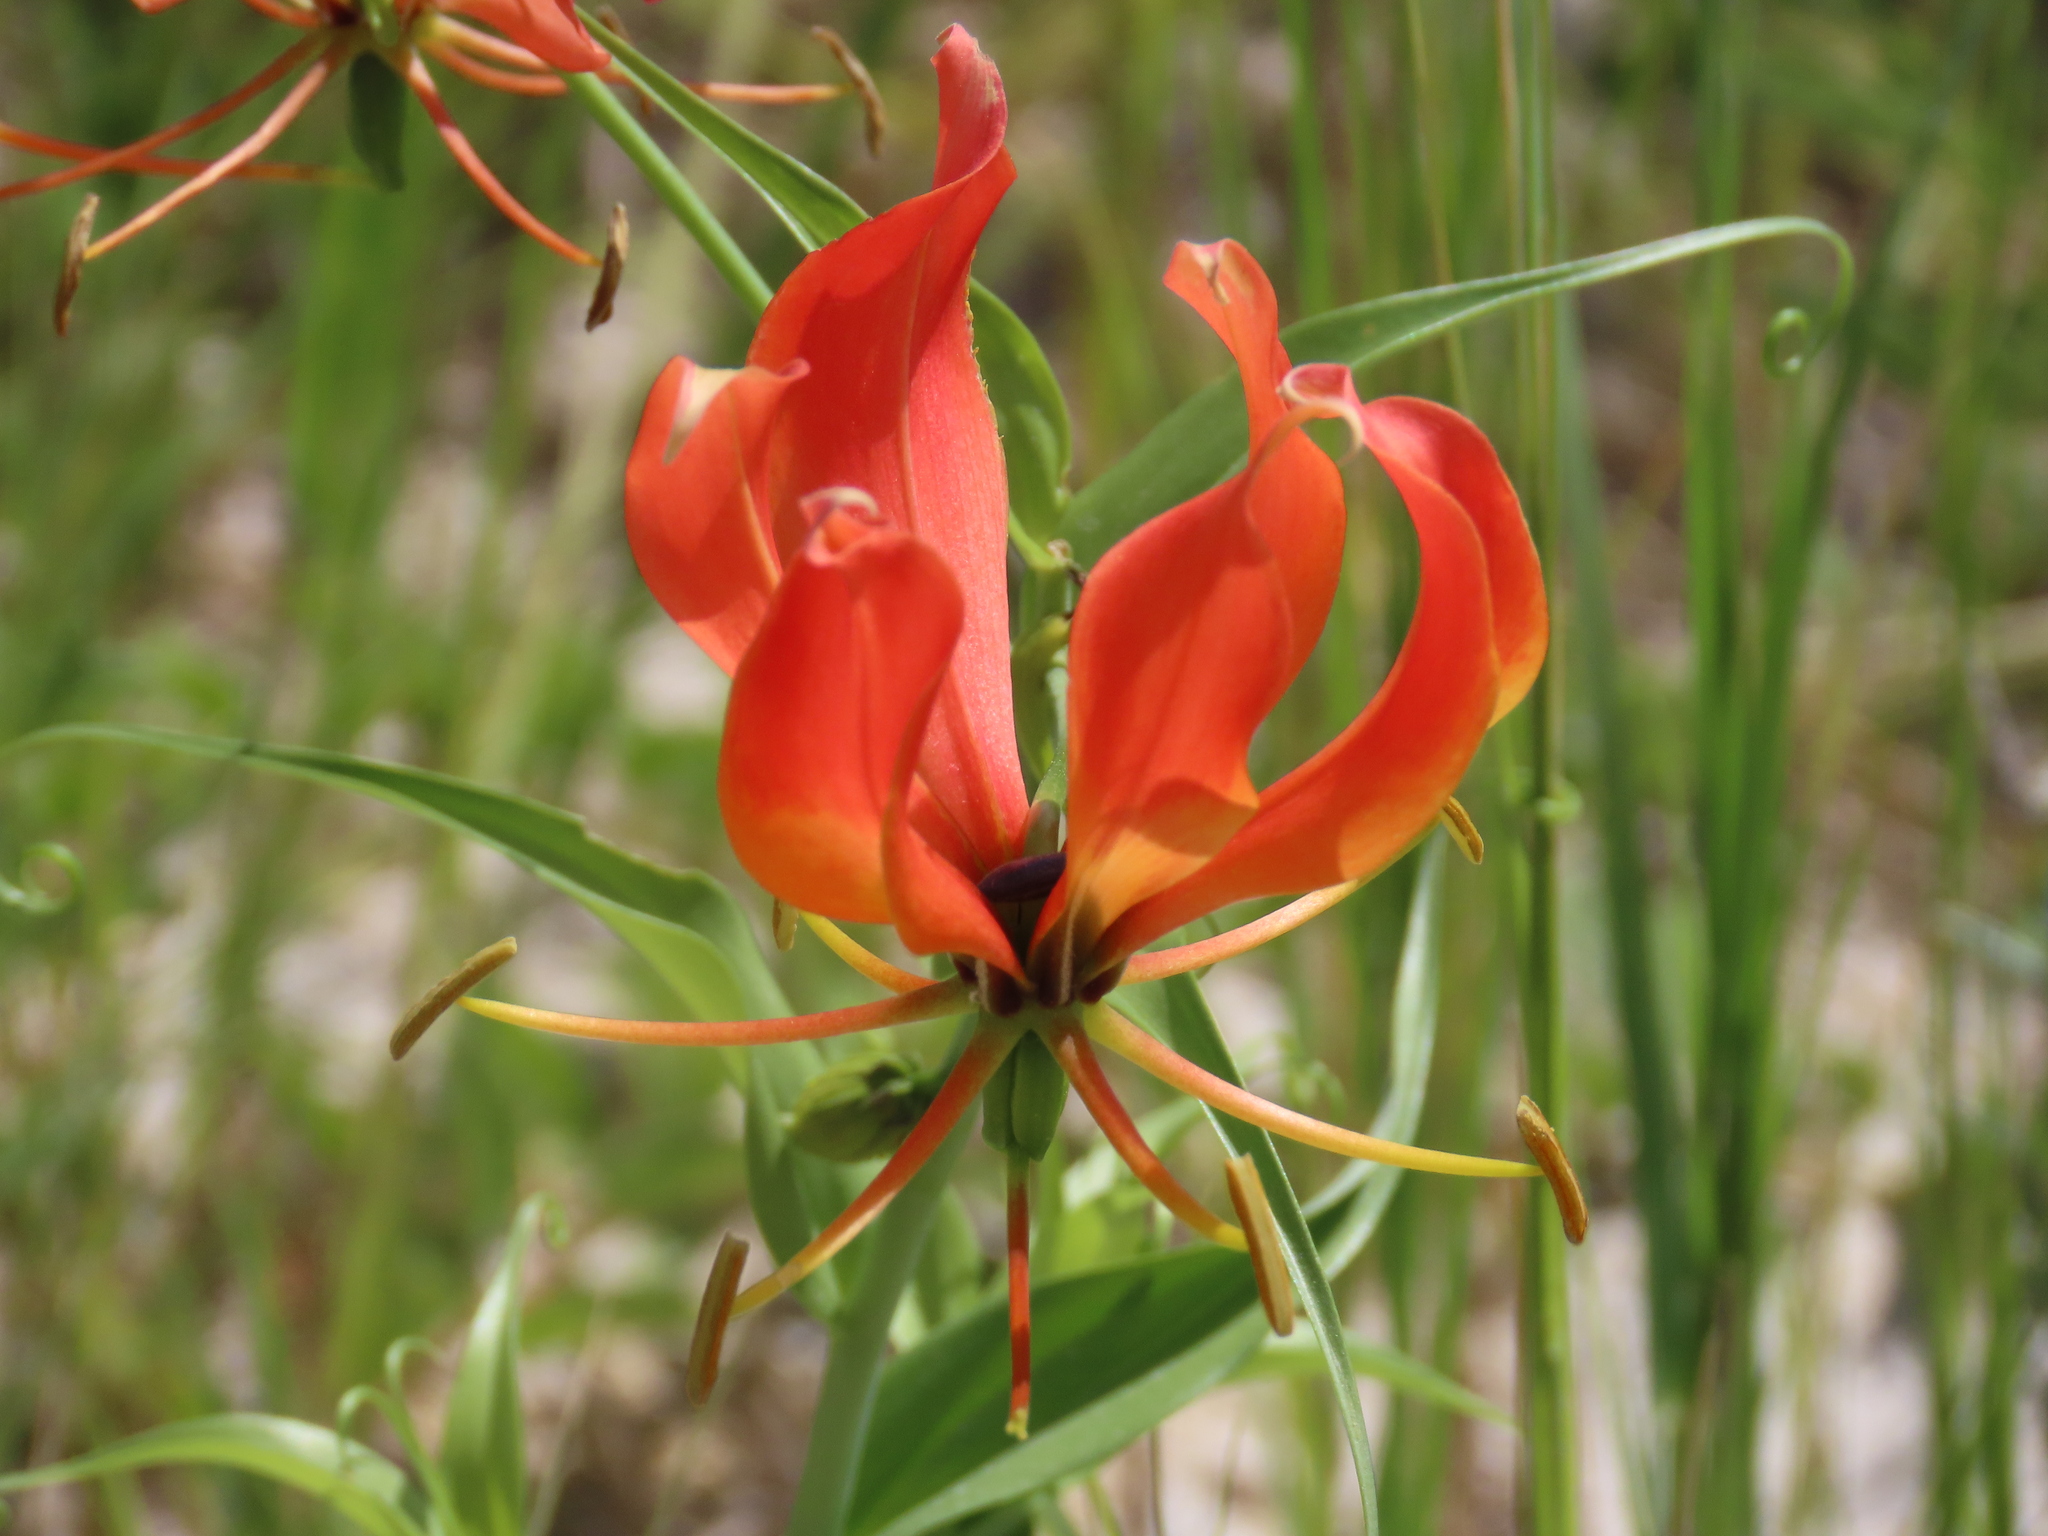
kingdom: Plantae
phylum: Tracheophyta
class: Liliopsida
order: Liliales
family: Colchicaceae
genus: Gloriosa
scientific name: Gloriosa superba
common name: Flame lily
